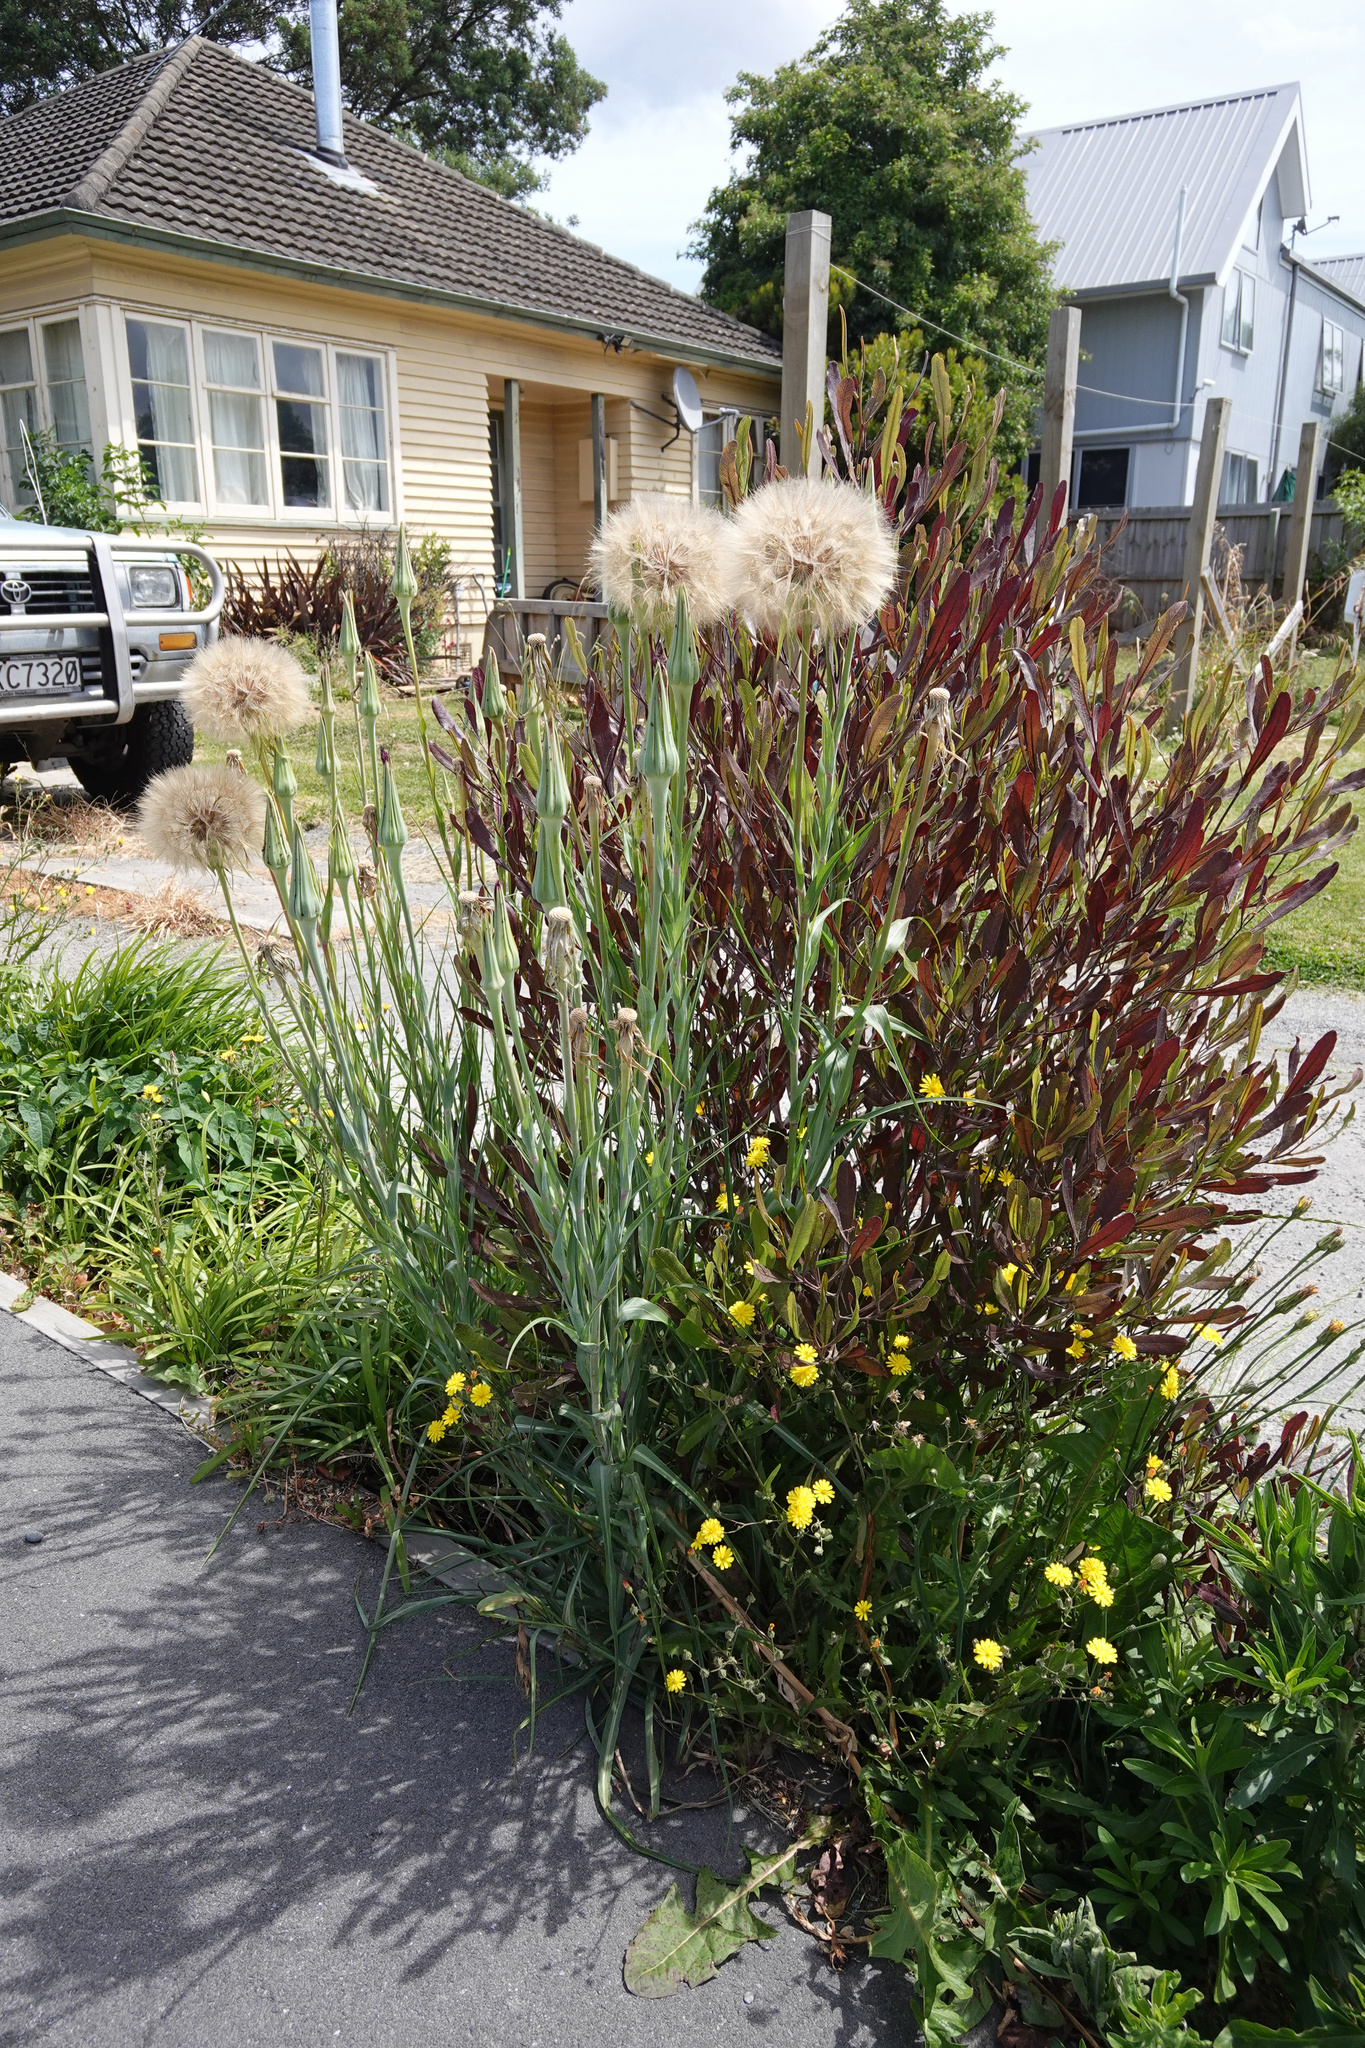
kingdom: Plantae
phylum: Tracheophyta
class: Magnoliopsida
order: Asterales
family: Asteraceae
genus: Tragopogon
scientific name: Tragopogon porrifolius
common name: Salsify
